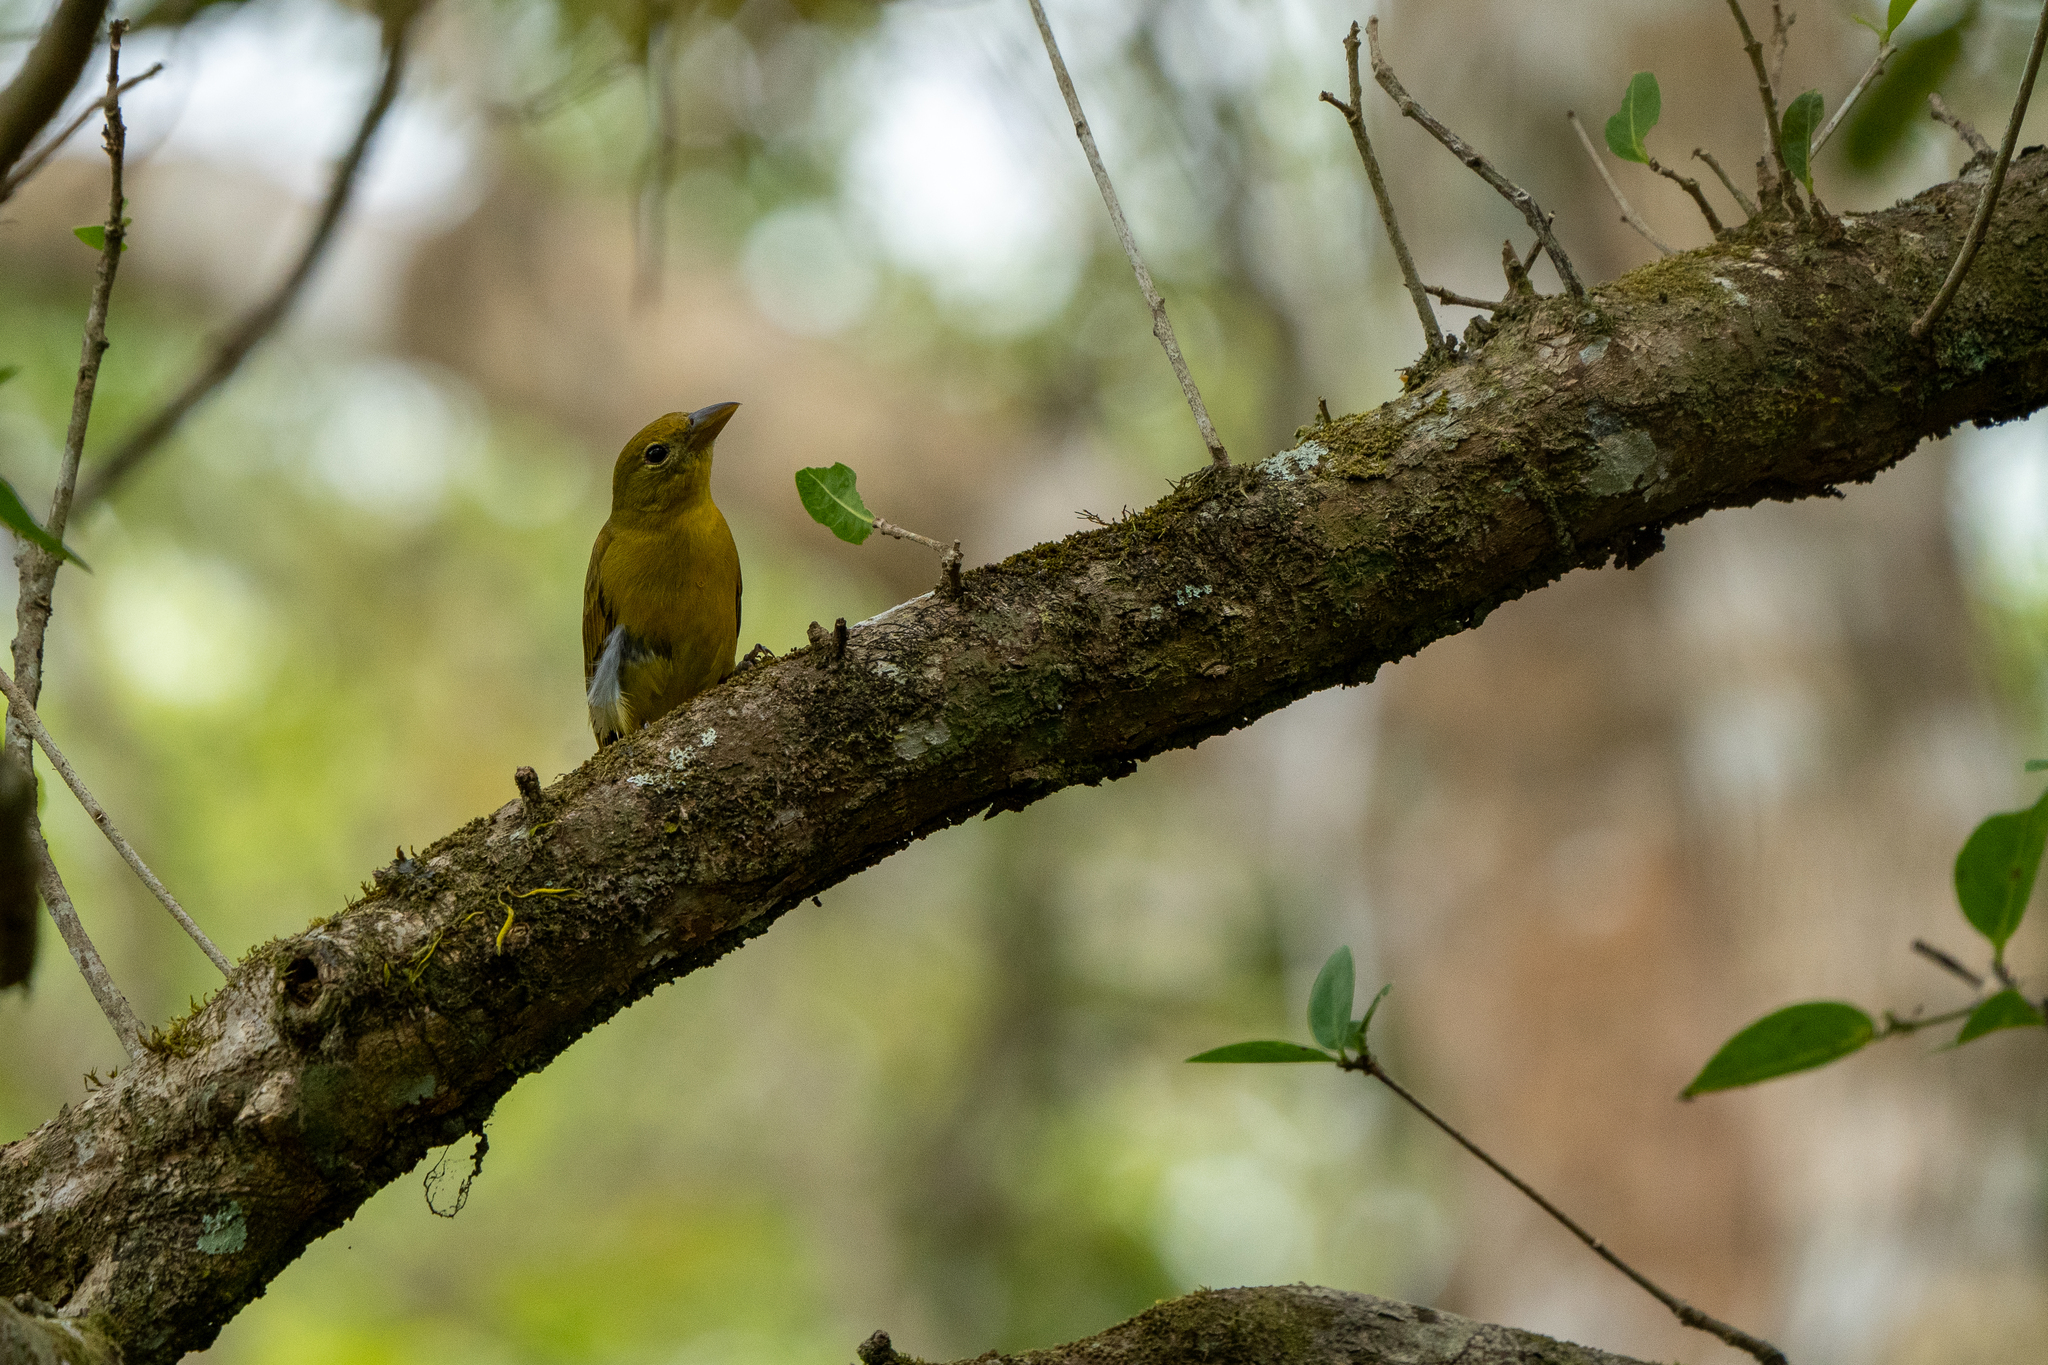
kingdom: Animalia
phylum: Chordata
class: Aves
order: Passeriformes
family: Cardinalidae
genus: Piranga
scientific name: Piranga rubra
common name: Summer tanager
